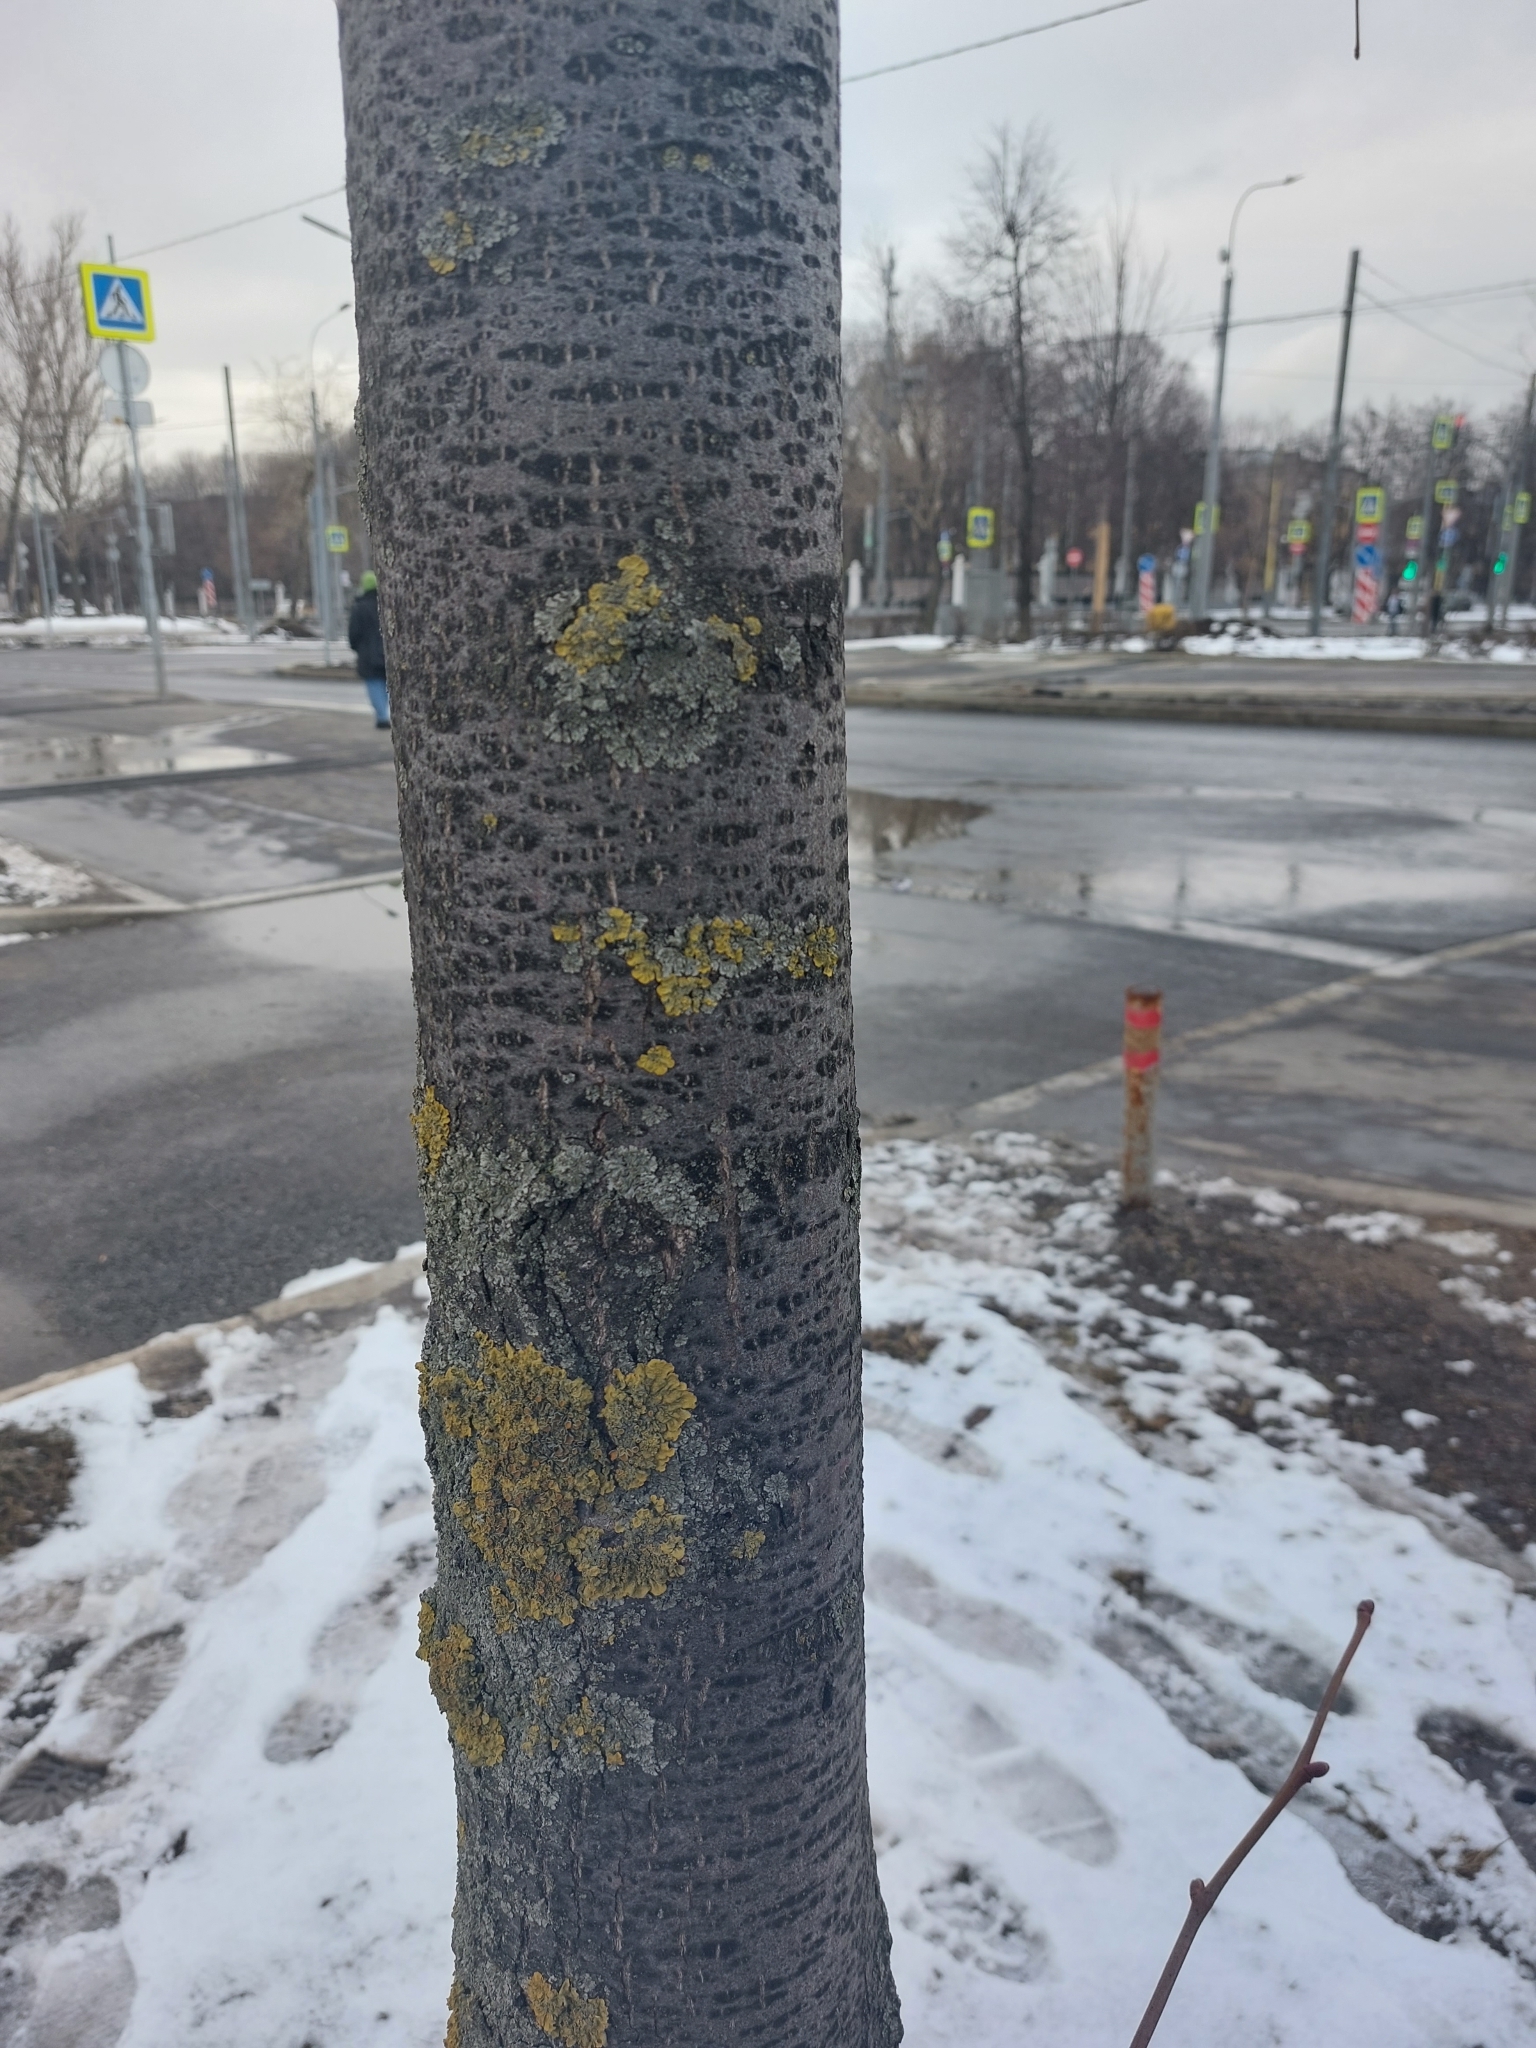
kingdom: Fungi
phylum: Ascomycota
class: Lecanoromycetes
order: Teloschistales
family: Teloschistaceae
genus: Xanthoria
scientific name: Xanthoria parietina
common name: Common orange lichen
